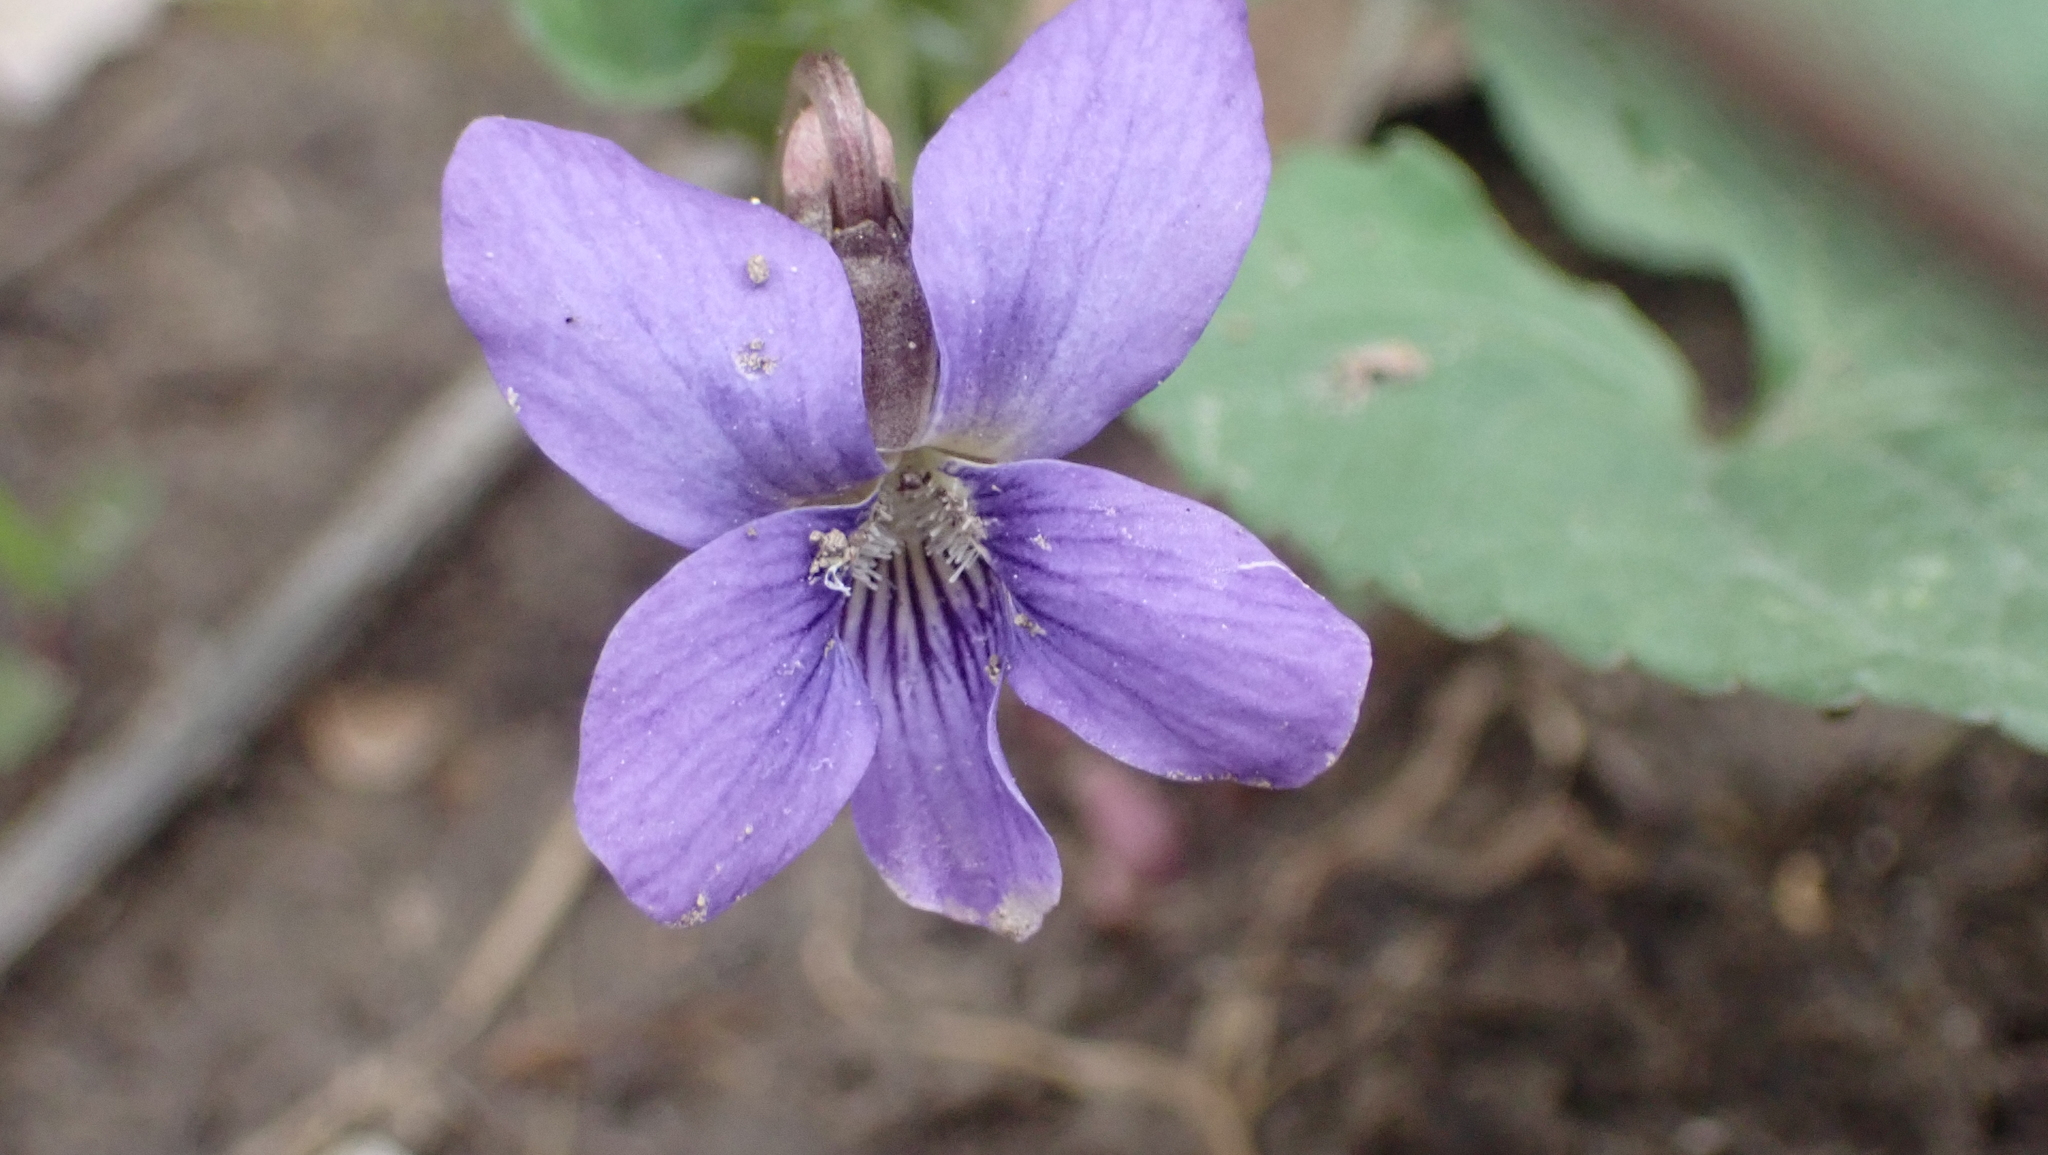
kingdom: Plantae
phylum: Tracheophyta
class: Magnoliopsida
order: Malpighiales
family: Violaceae
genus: Viola
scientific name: Viola sororia
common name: Dooryard violet
